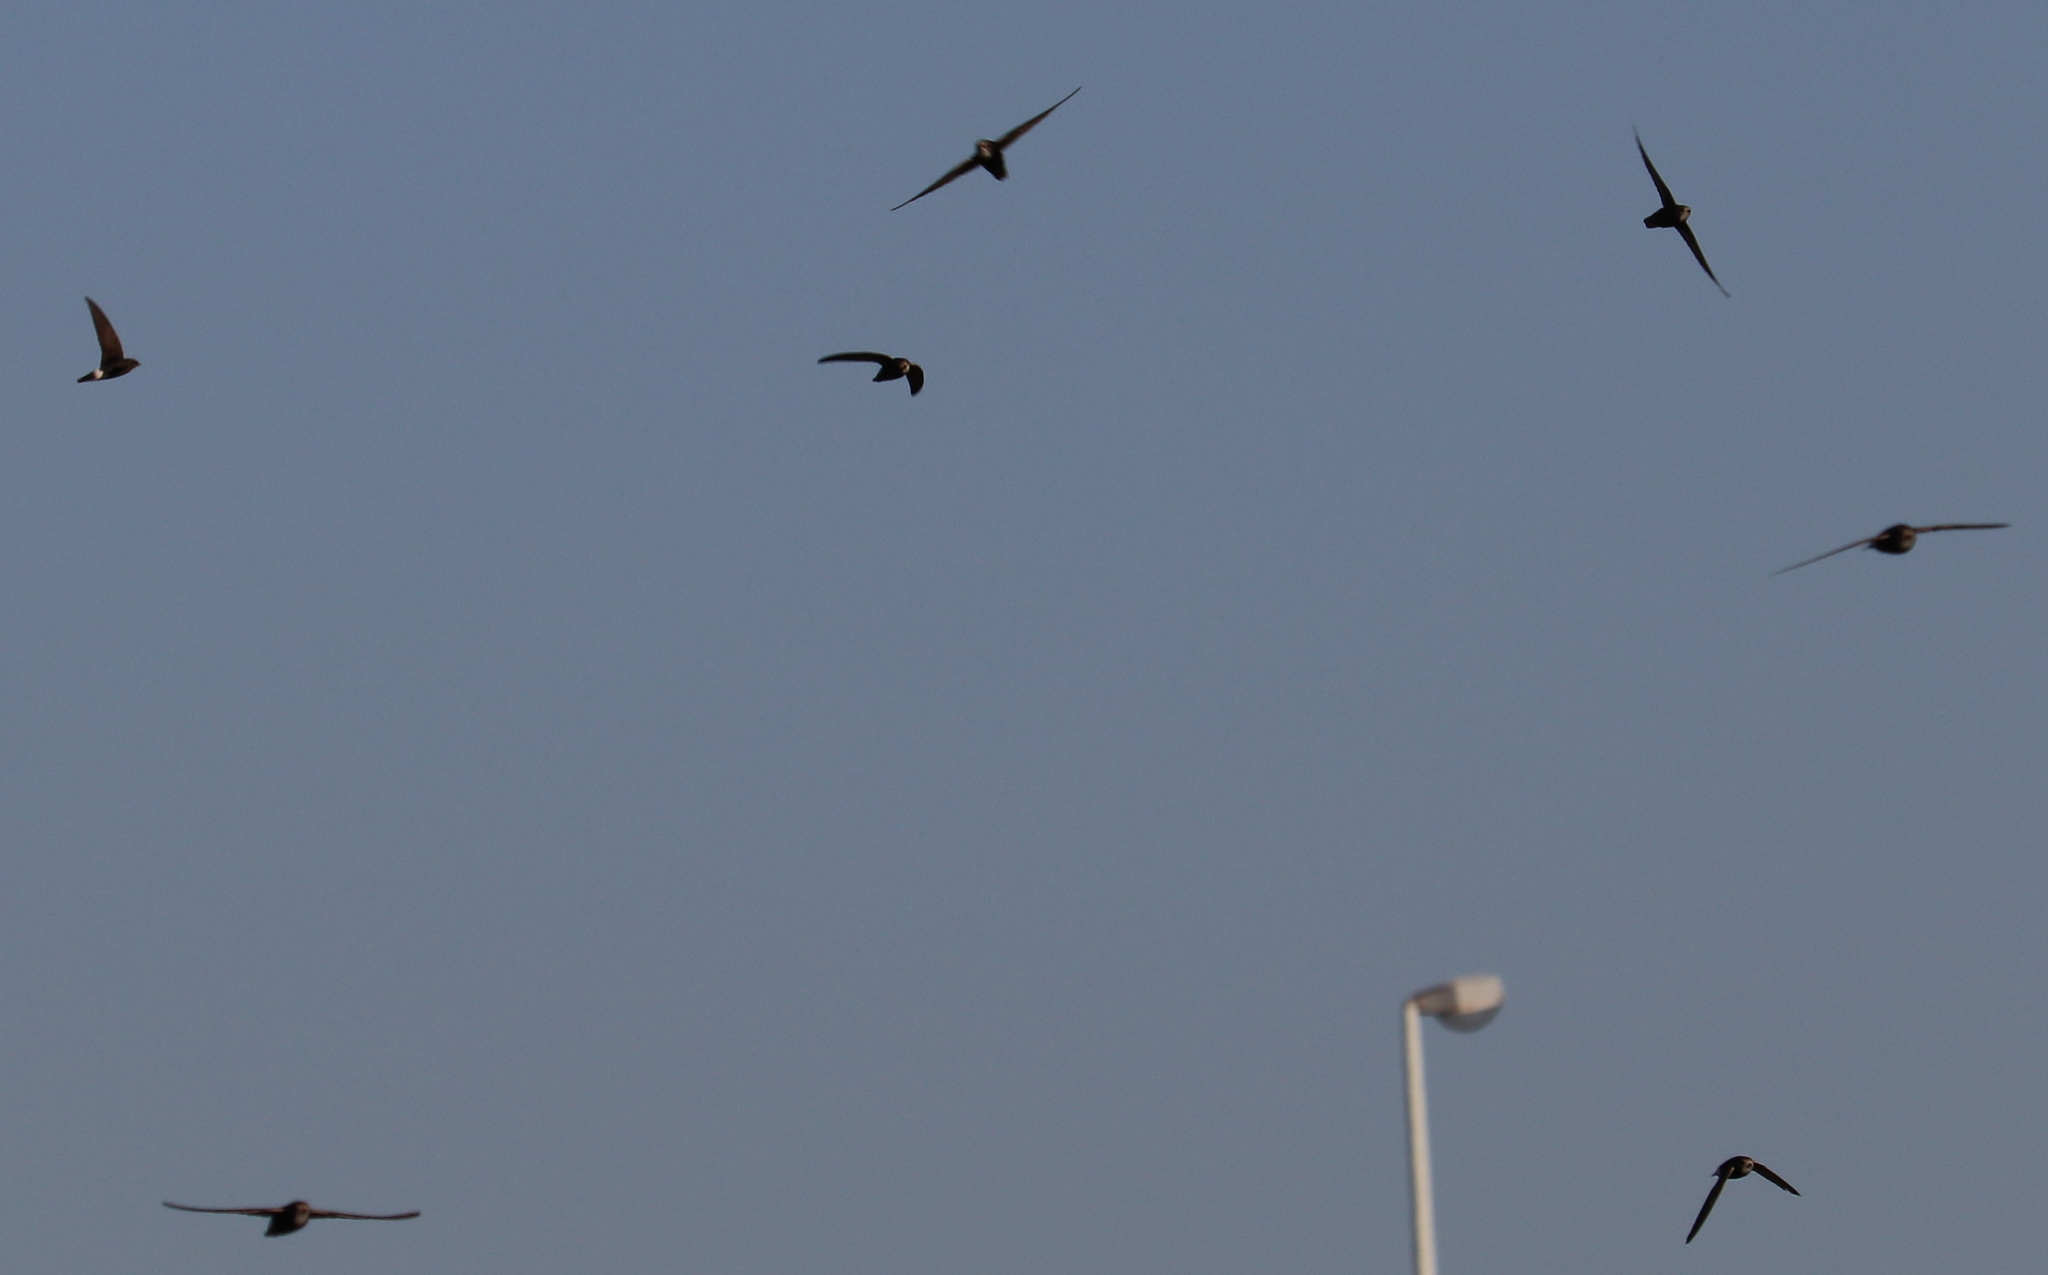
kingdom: Animalia
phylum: Chordata
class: Aves
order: Apodiformes
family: Apodidae
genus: Apus
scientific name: Apus affinis
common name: Little swift
